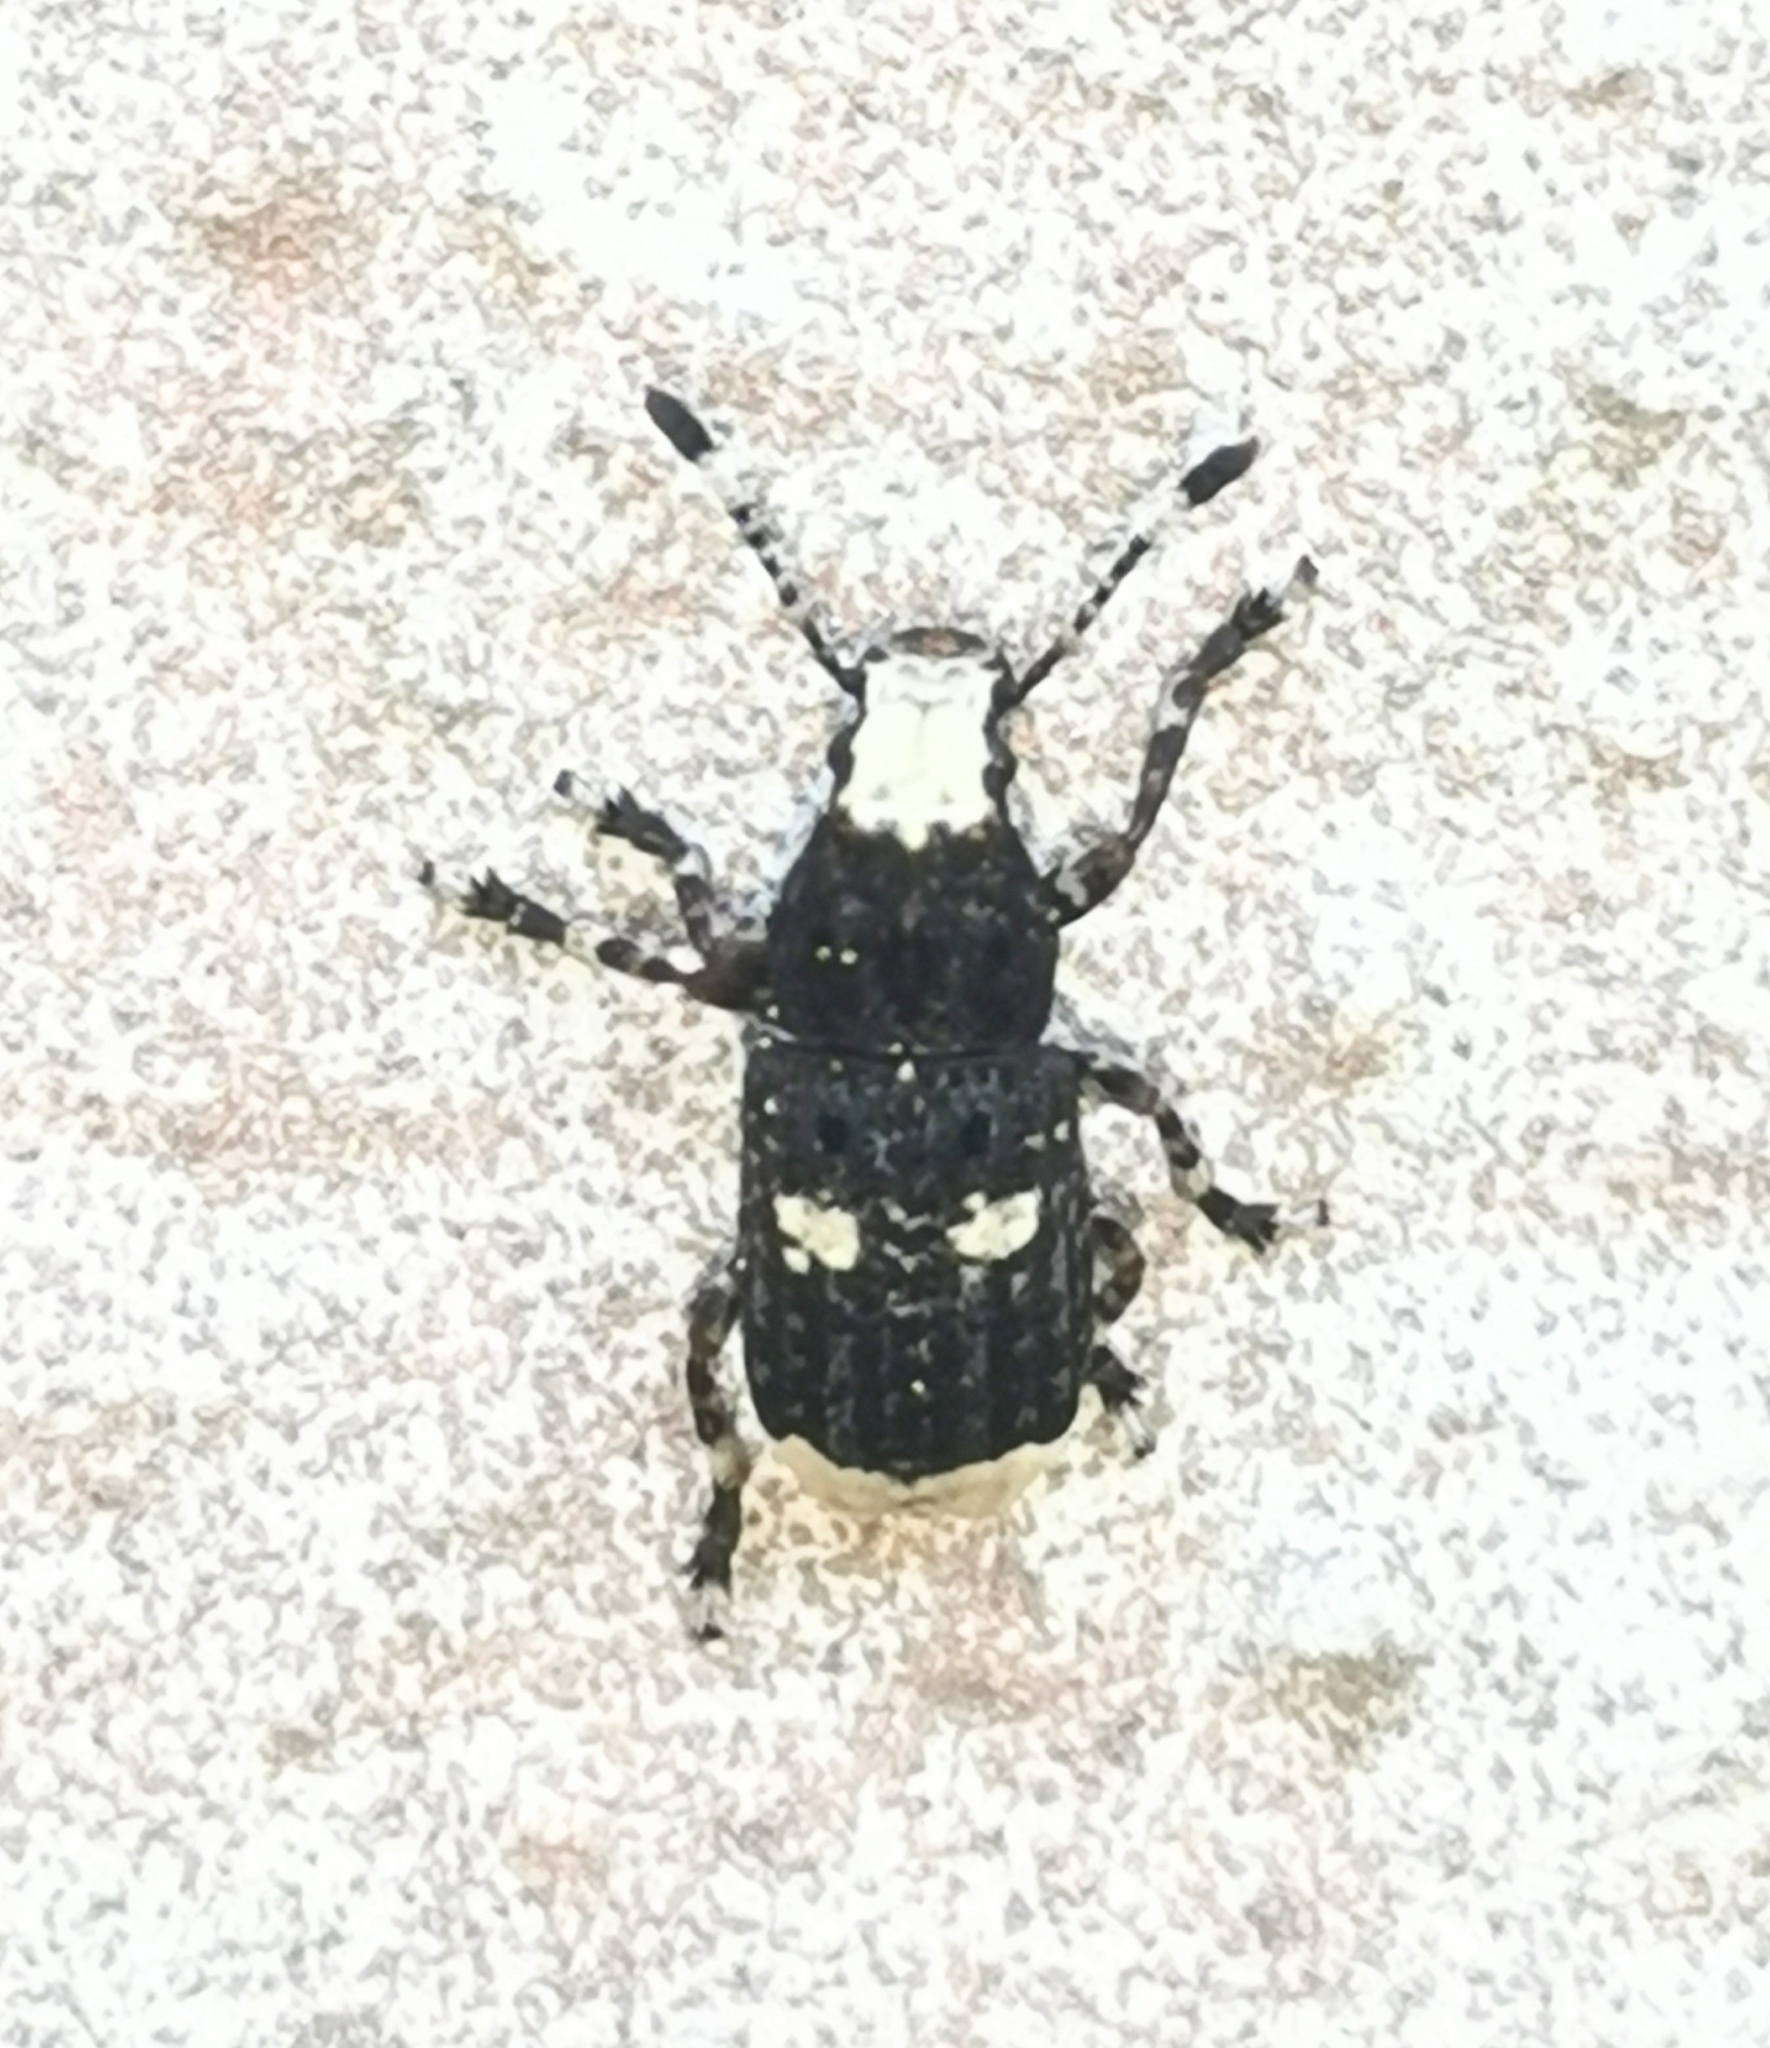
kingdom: Animalia
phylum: Arthropoda
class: Insecta
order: Coleoptera
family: Anthribidae
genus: Platystomos
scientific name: Platystomos albinus
